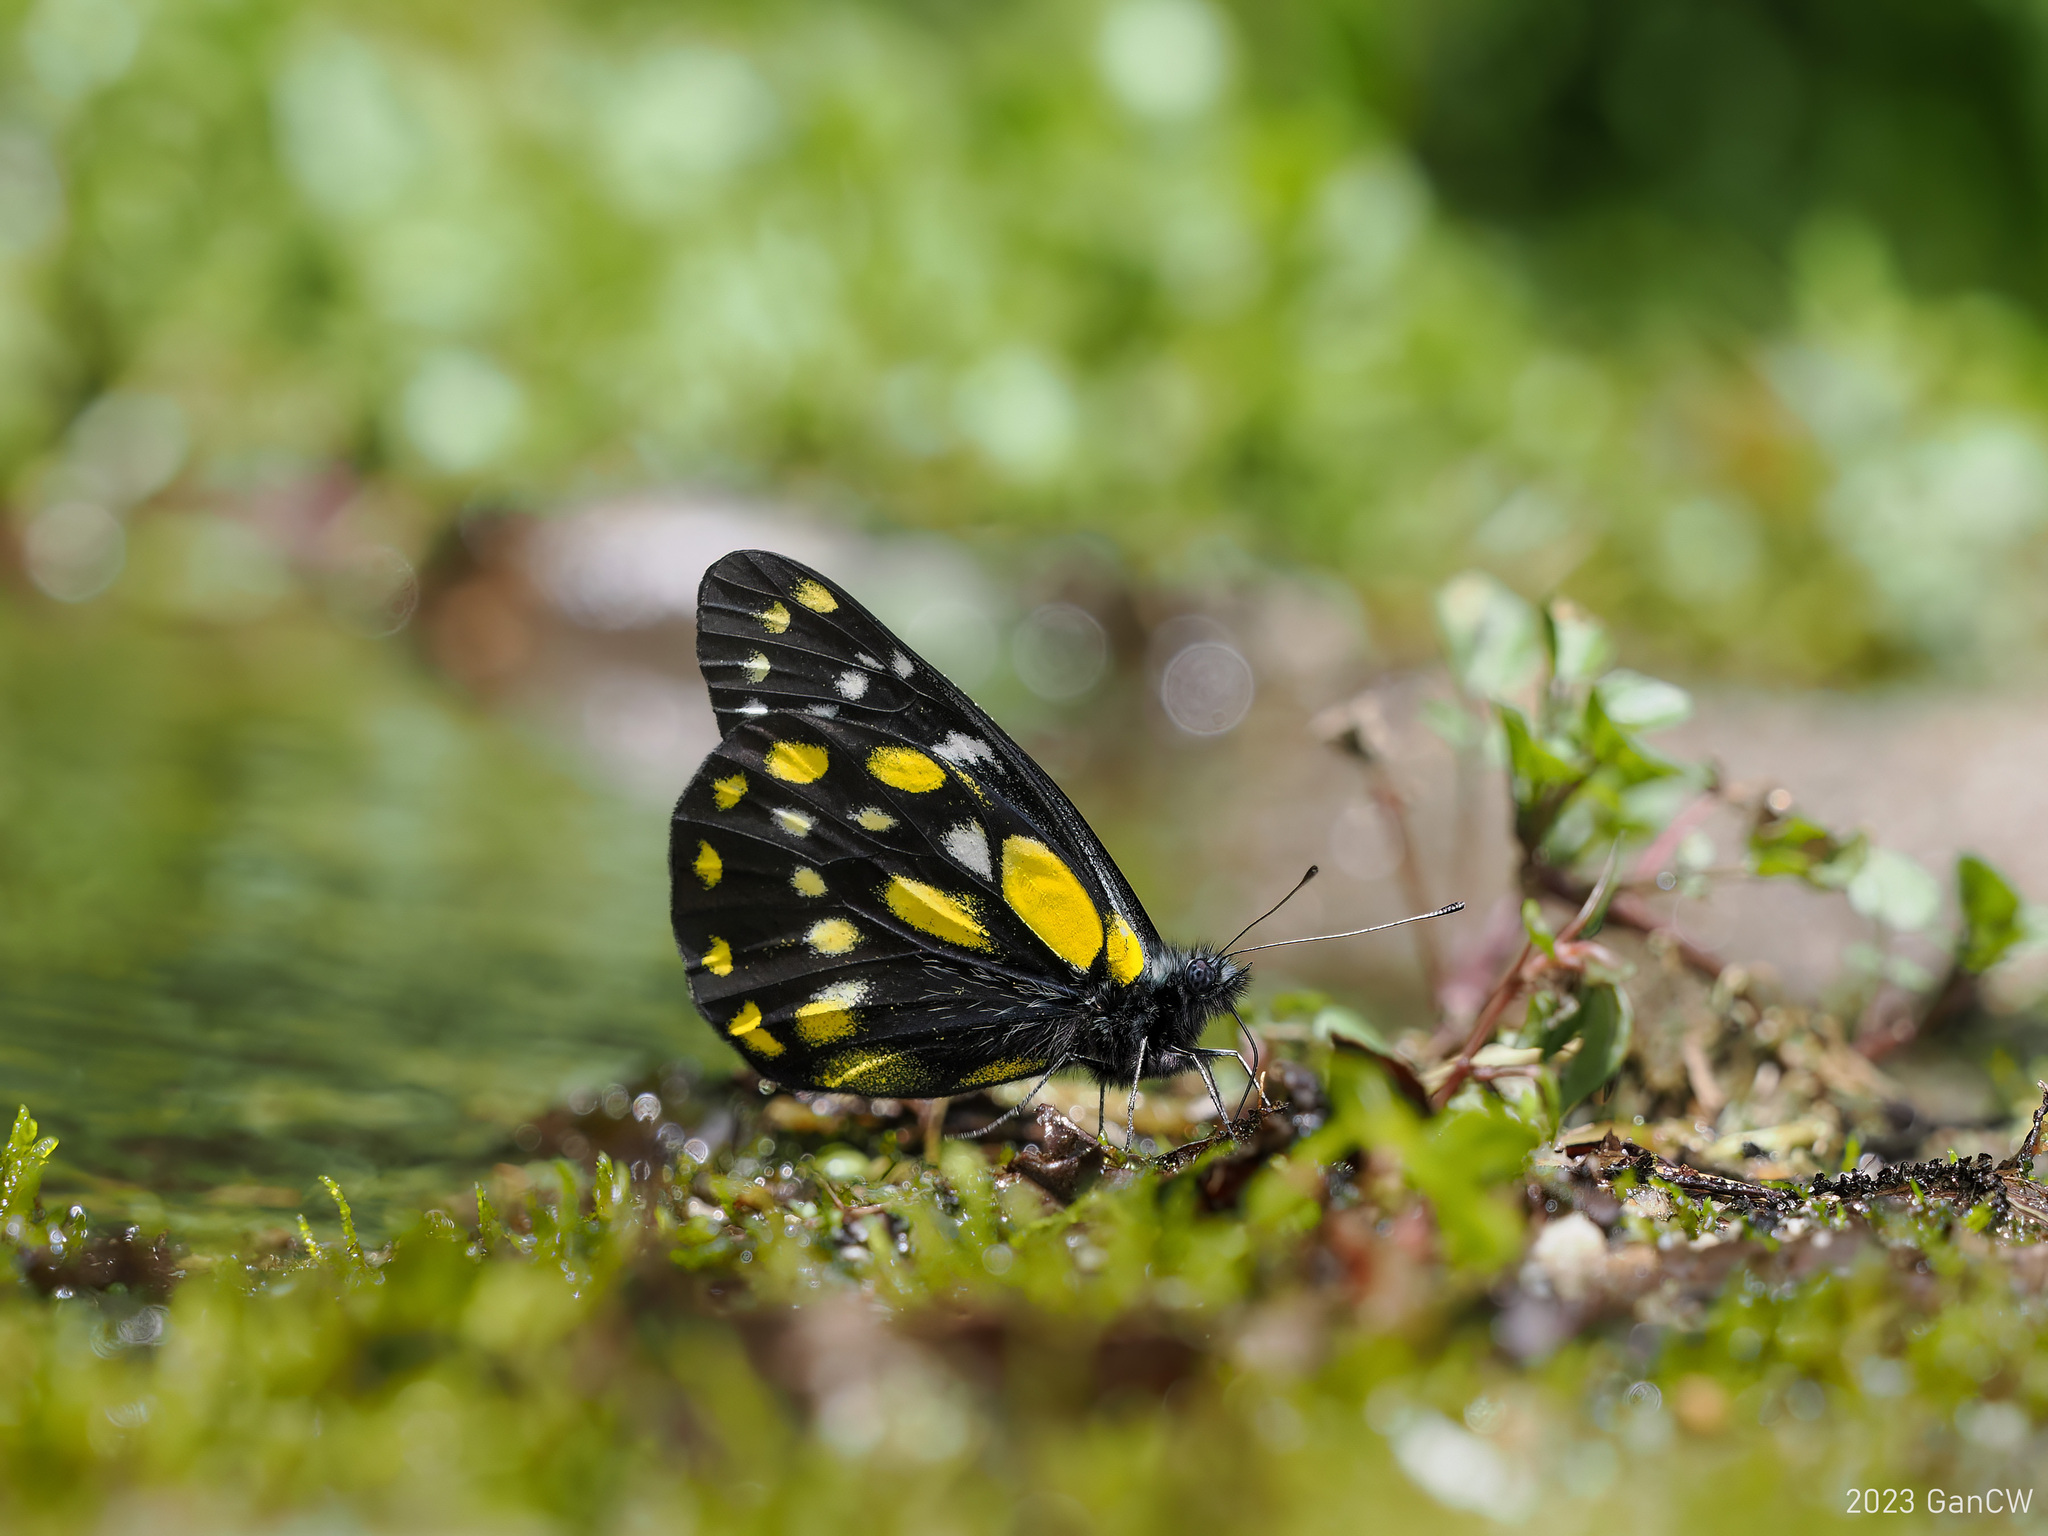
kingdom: Animalia
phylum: Arthropoda
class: Insecta
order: Lepidoptera
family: Pieridae
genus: Delias
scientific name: Delias belladonna
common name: Hill jezebel
